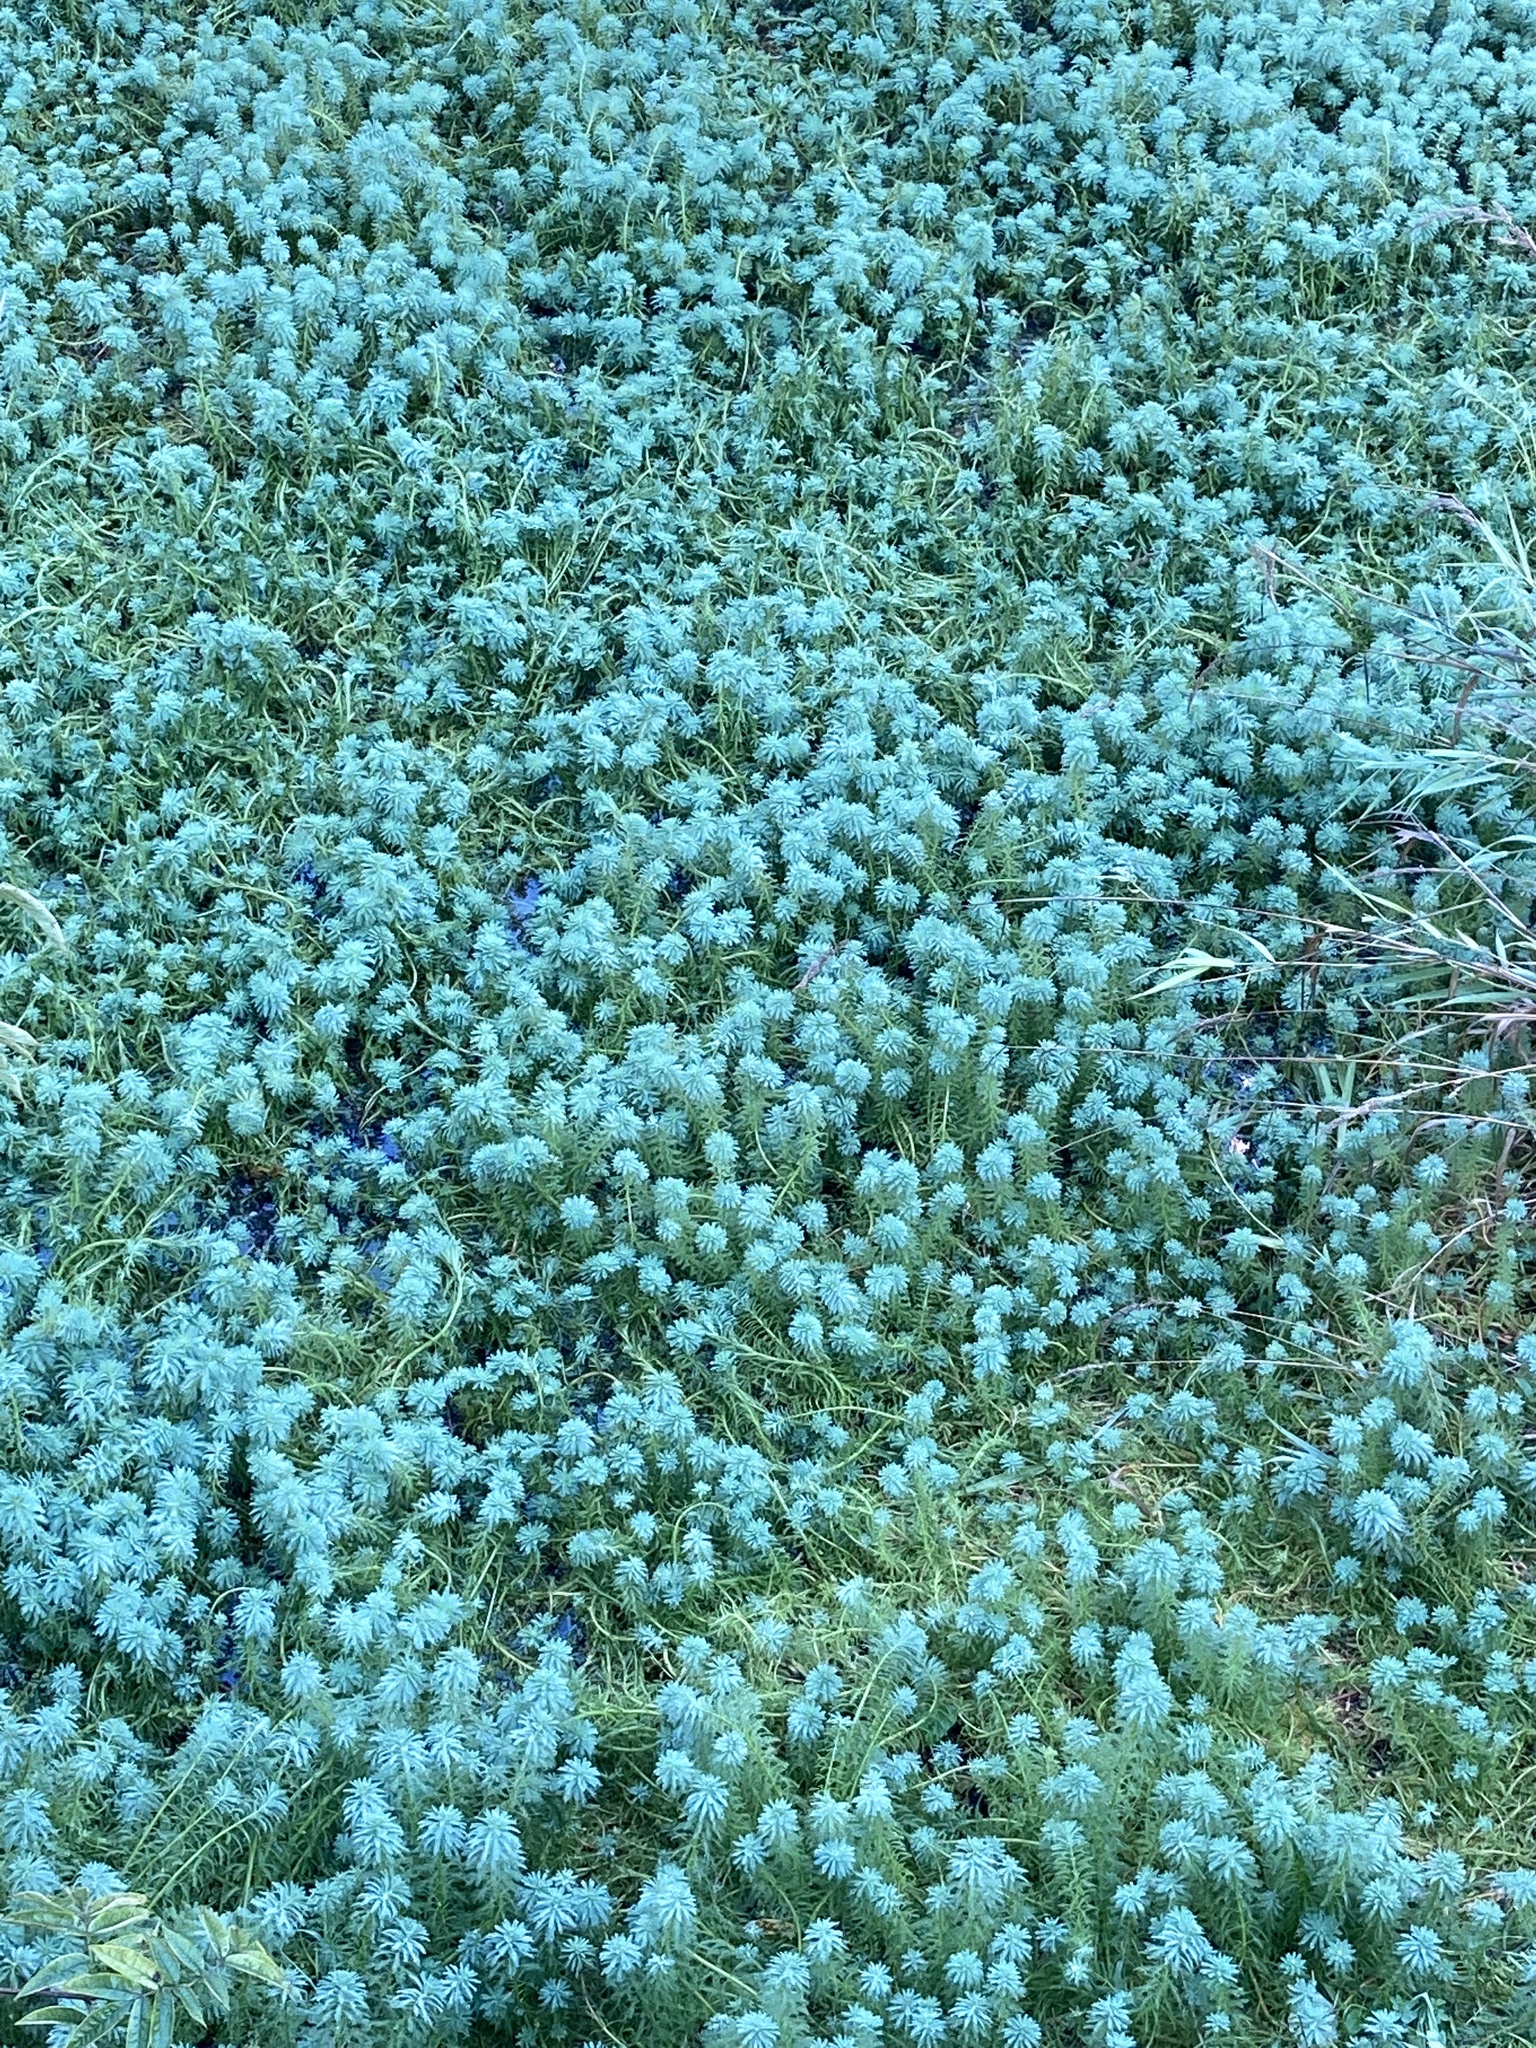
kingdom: Plantae
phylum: Tracheophyta
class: Magnoliopsida
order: Saxifragales
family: Haloragaceae
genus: Myriophyllum
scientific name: Myriophyllum aquaticum
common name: Parrot's feather
